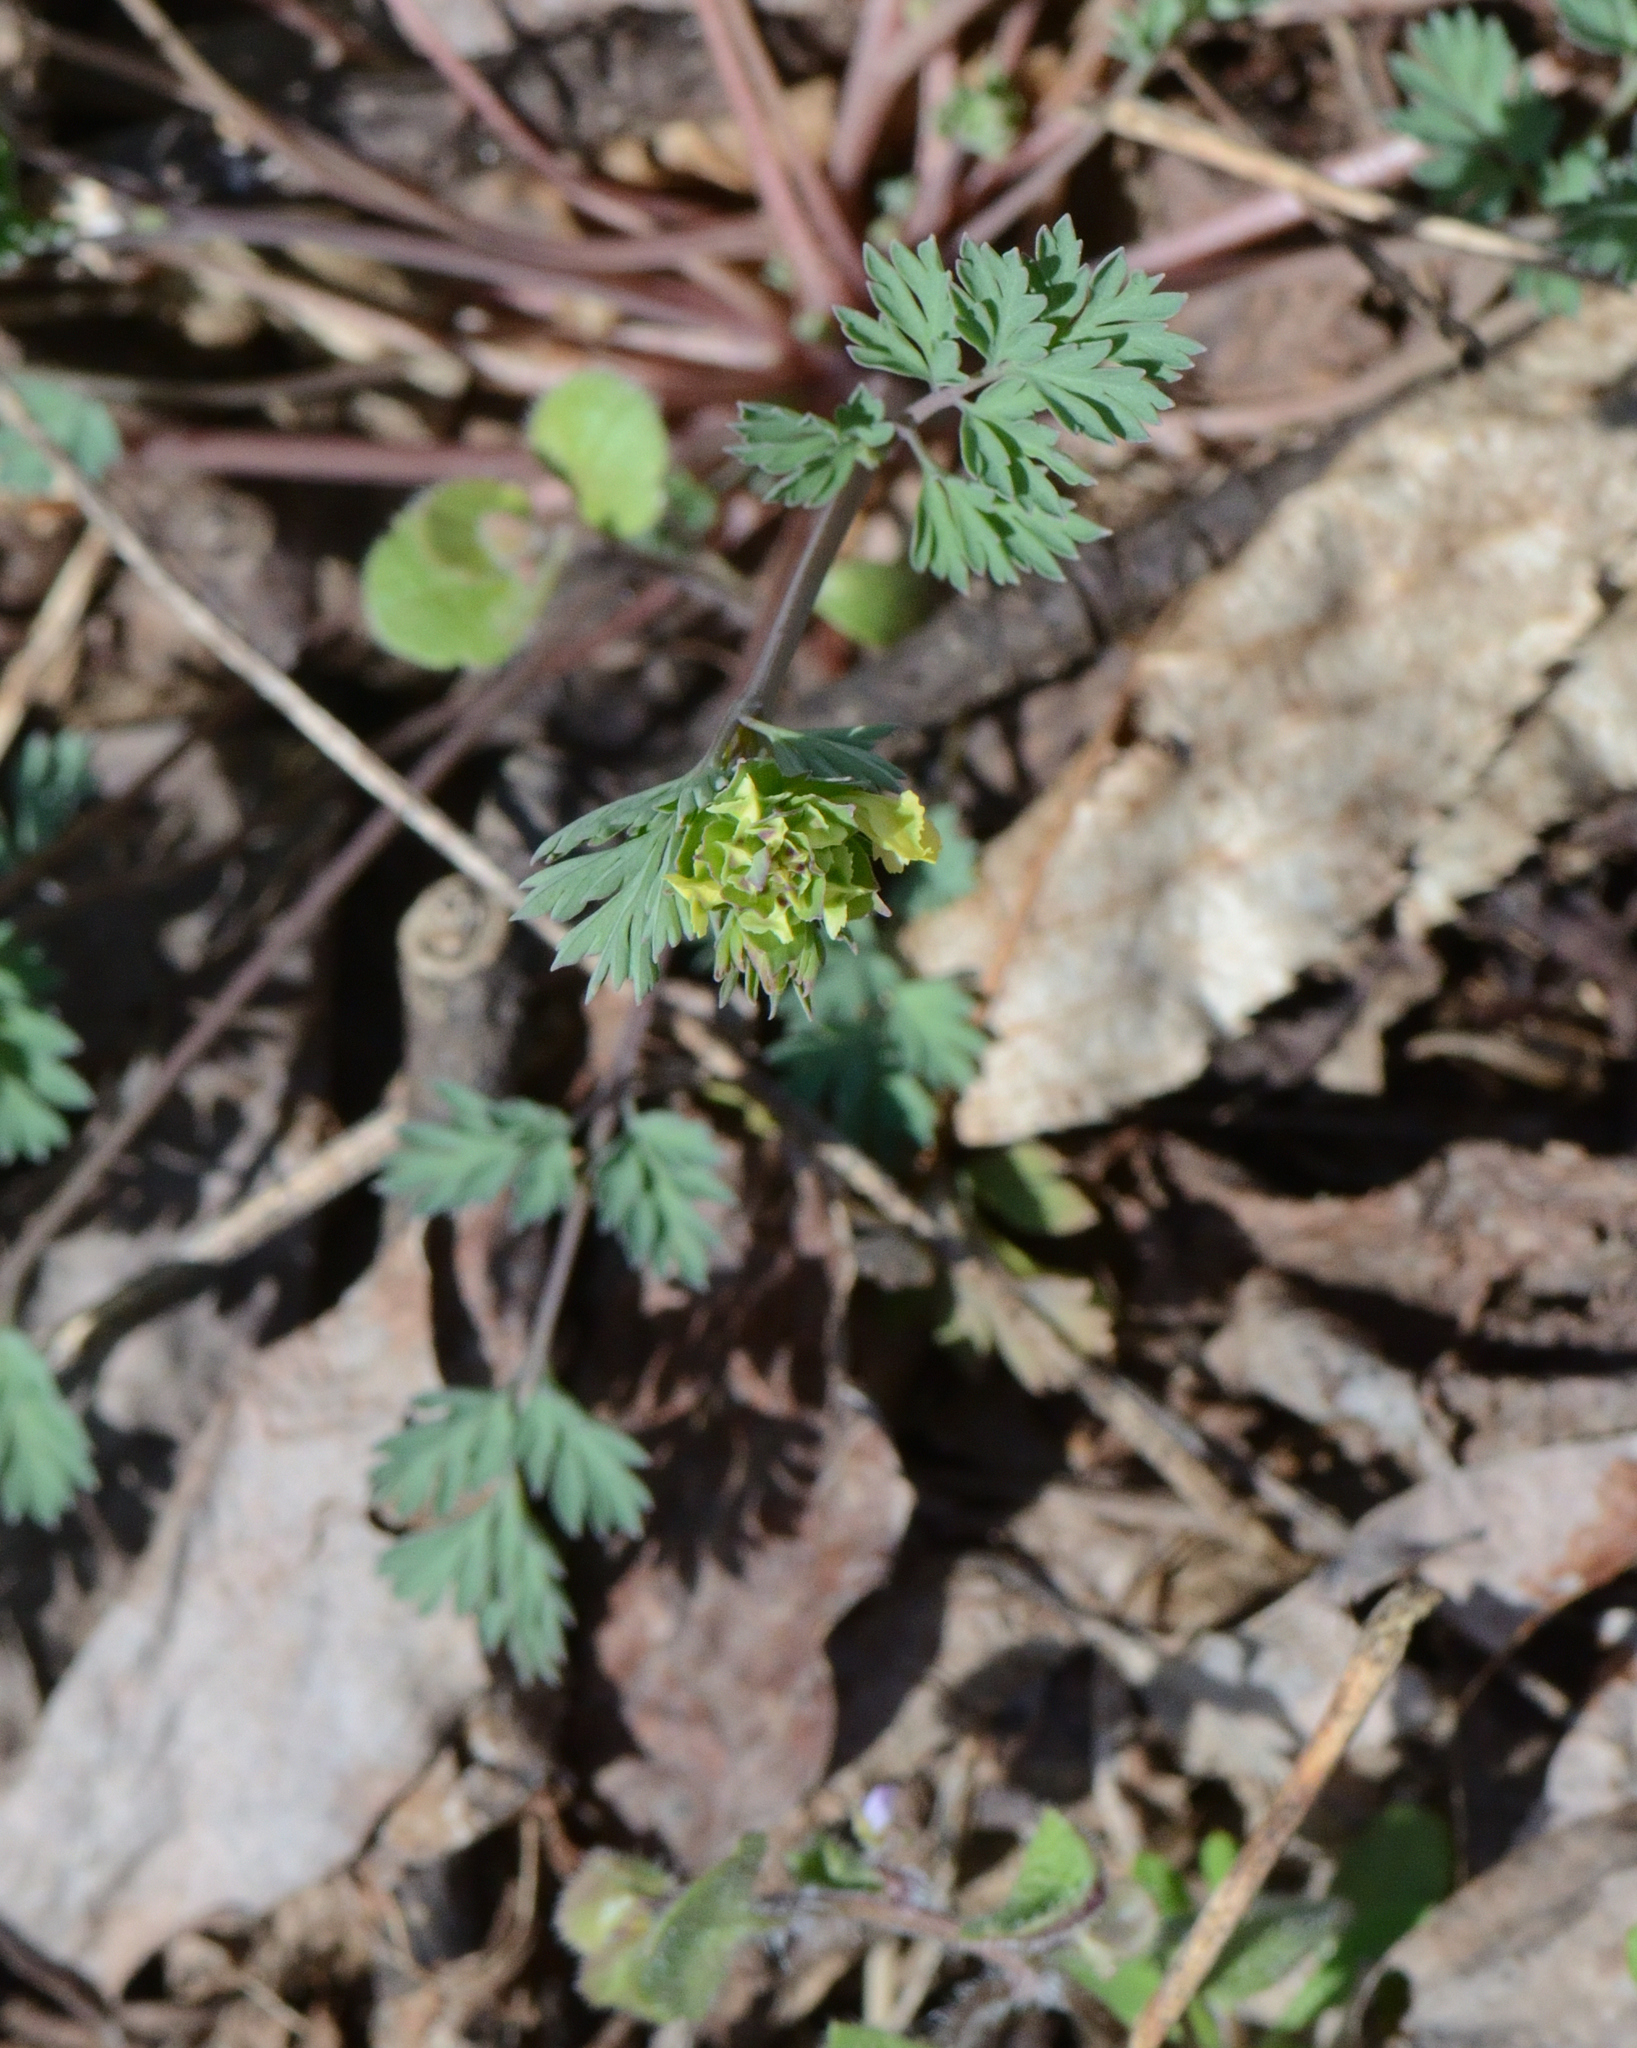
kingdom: Plantae
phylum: Tracheophyta
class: Magnoliopsida
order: Ranunculales
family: Papaveraceae
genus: Corydalis
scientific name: Corydalis flavula
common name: Yellow corydalis
